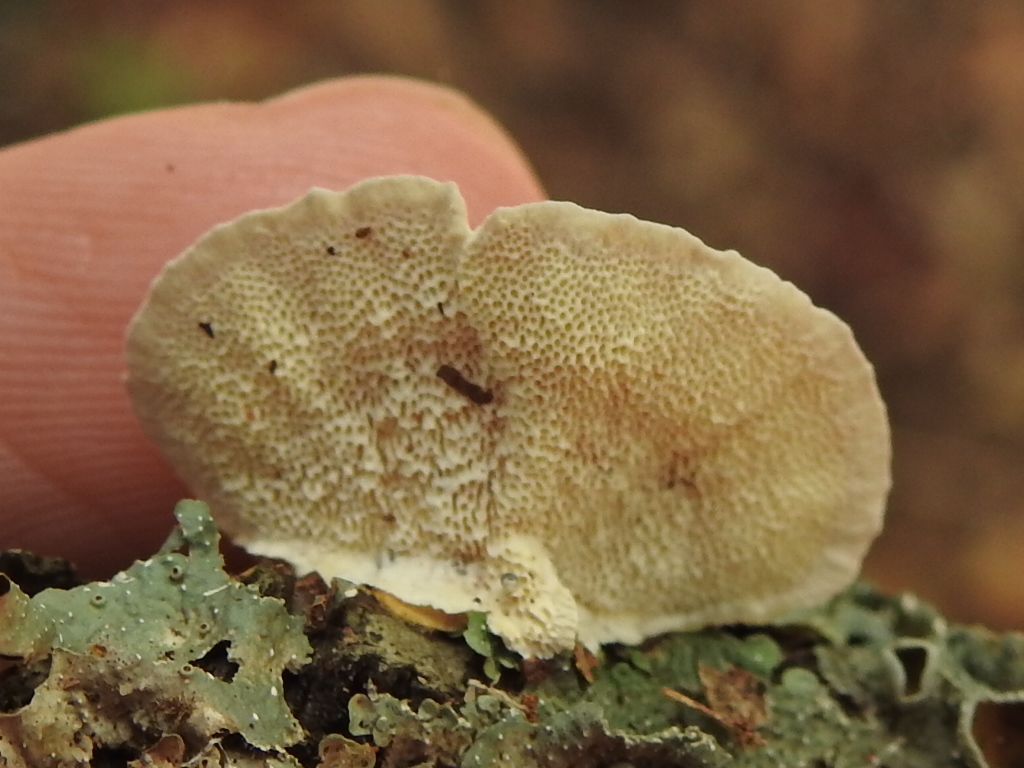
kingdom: Fungi
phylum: Basidiomycota
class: Agaricomycetes
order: Polyporales
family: Polyporaceae
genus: Trametes
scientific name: Trametes hirsuta
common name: Hairy bracket
